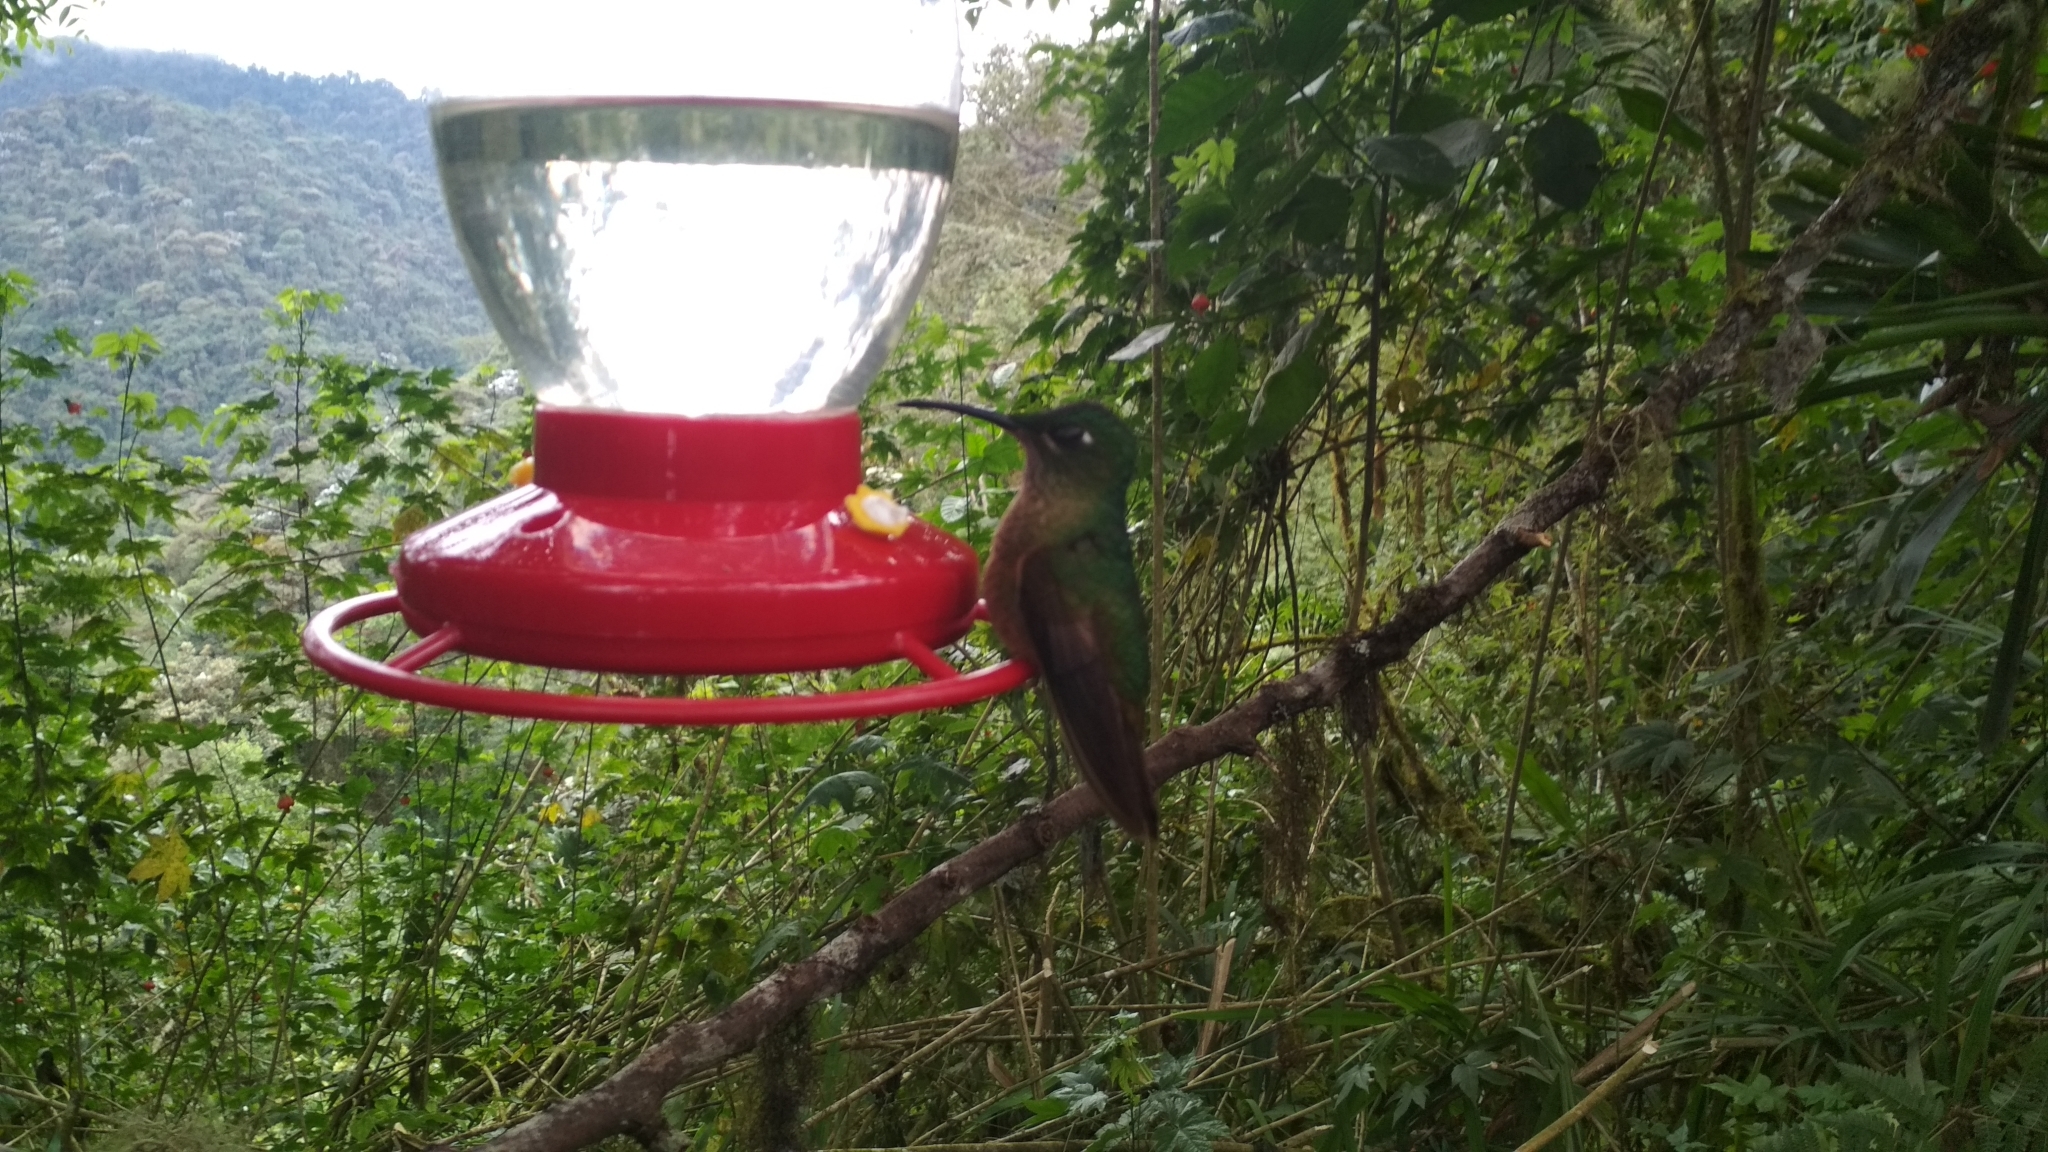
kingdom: Animalia
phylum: Chordata
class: Aves
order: Apodiformes
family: Trochilidae
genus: Heliodoxa
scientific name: Heliodoxa rubinoides
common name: Fawn-breasted brilliant
